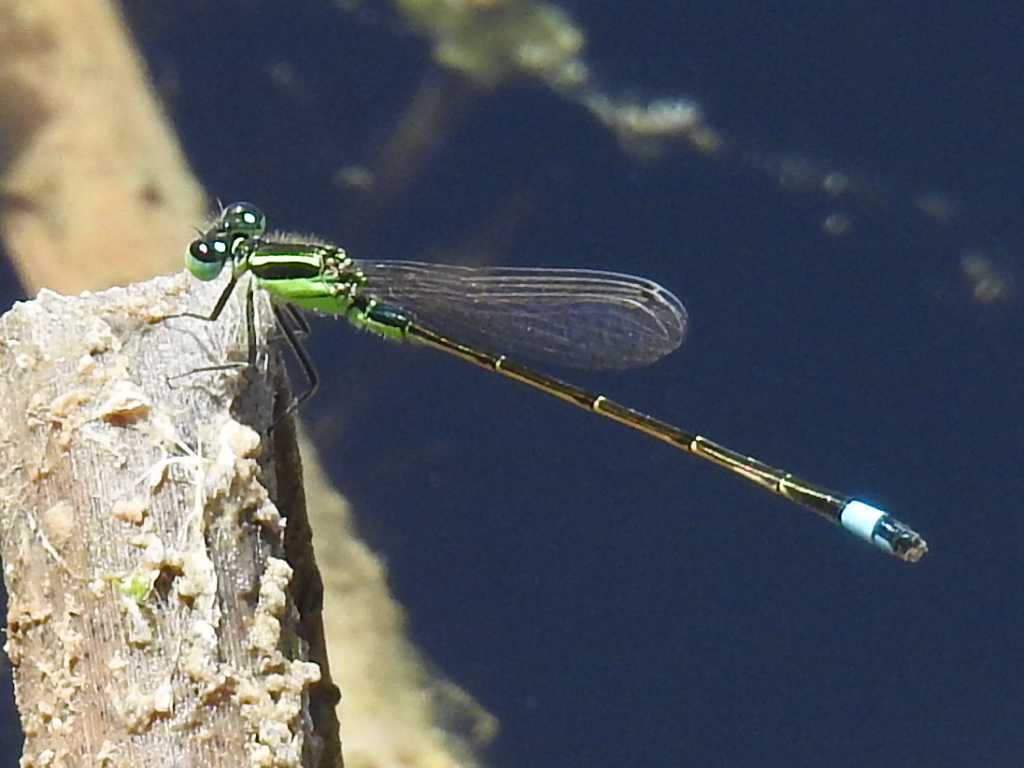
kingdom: Animalia
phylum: Arthropoda
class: Insecta
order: Odonata
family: Coenagrionidae
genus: Ischnura
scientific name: Ischnura ramburii
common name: Rambur's forktail
